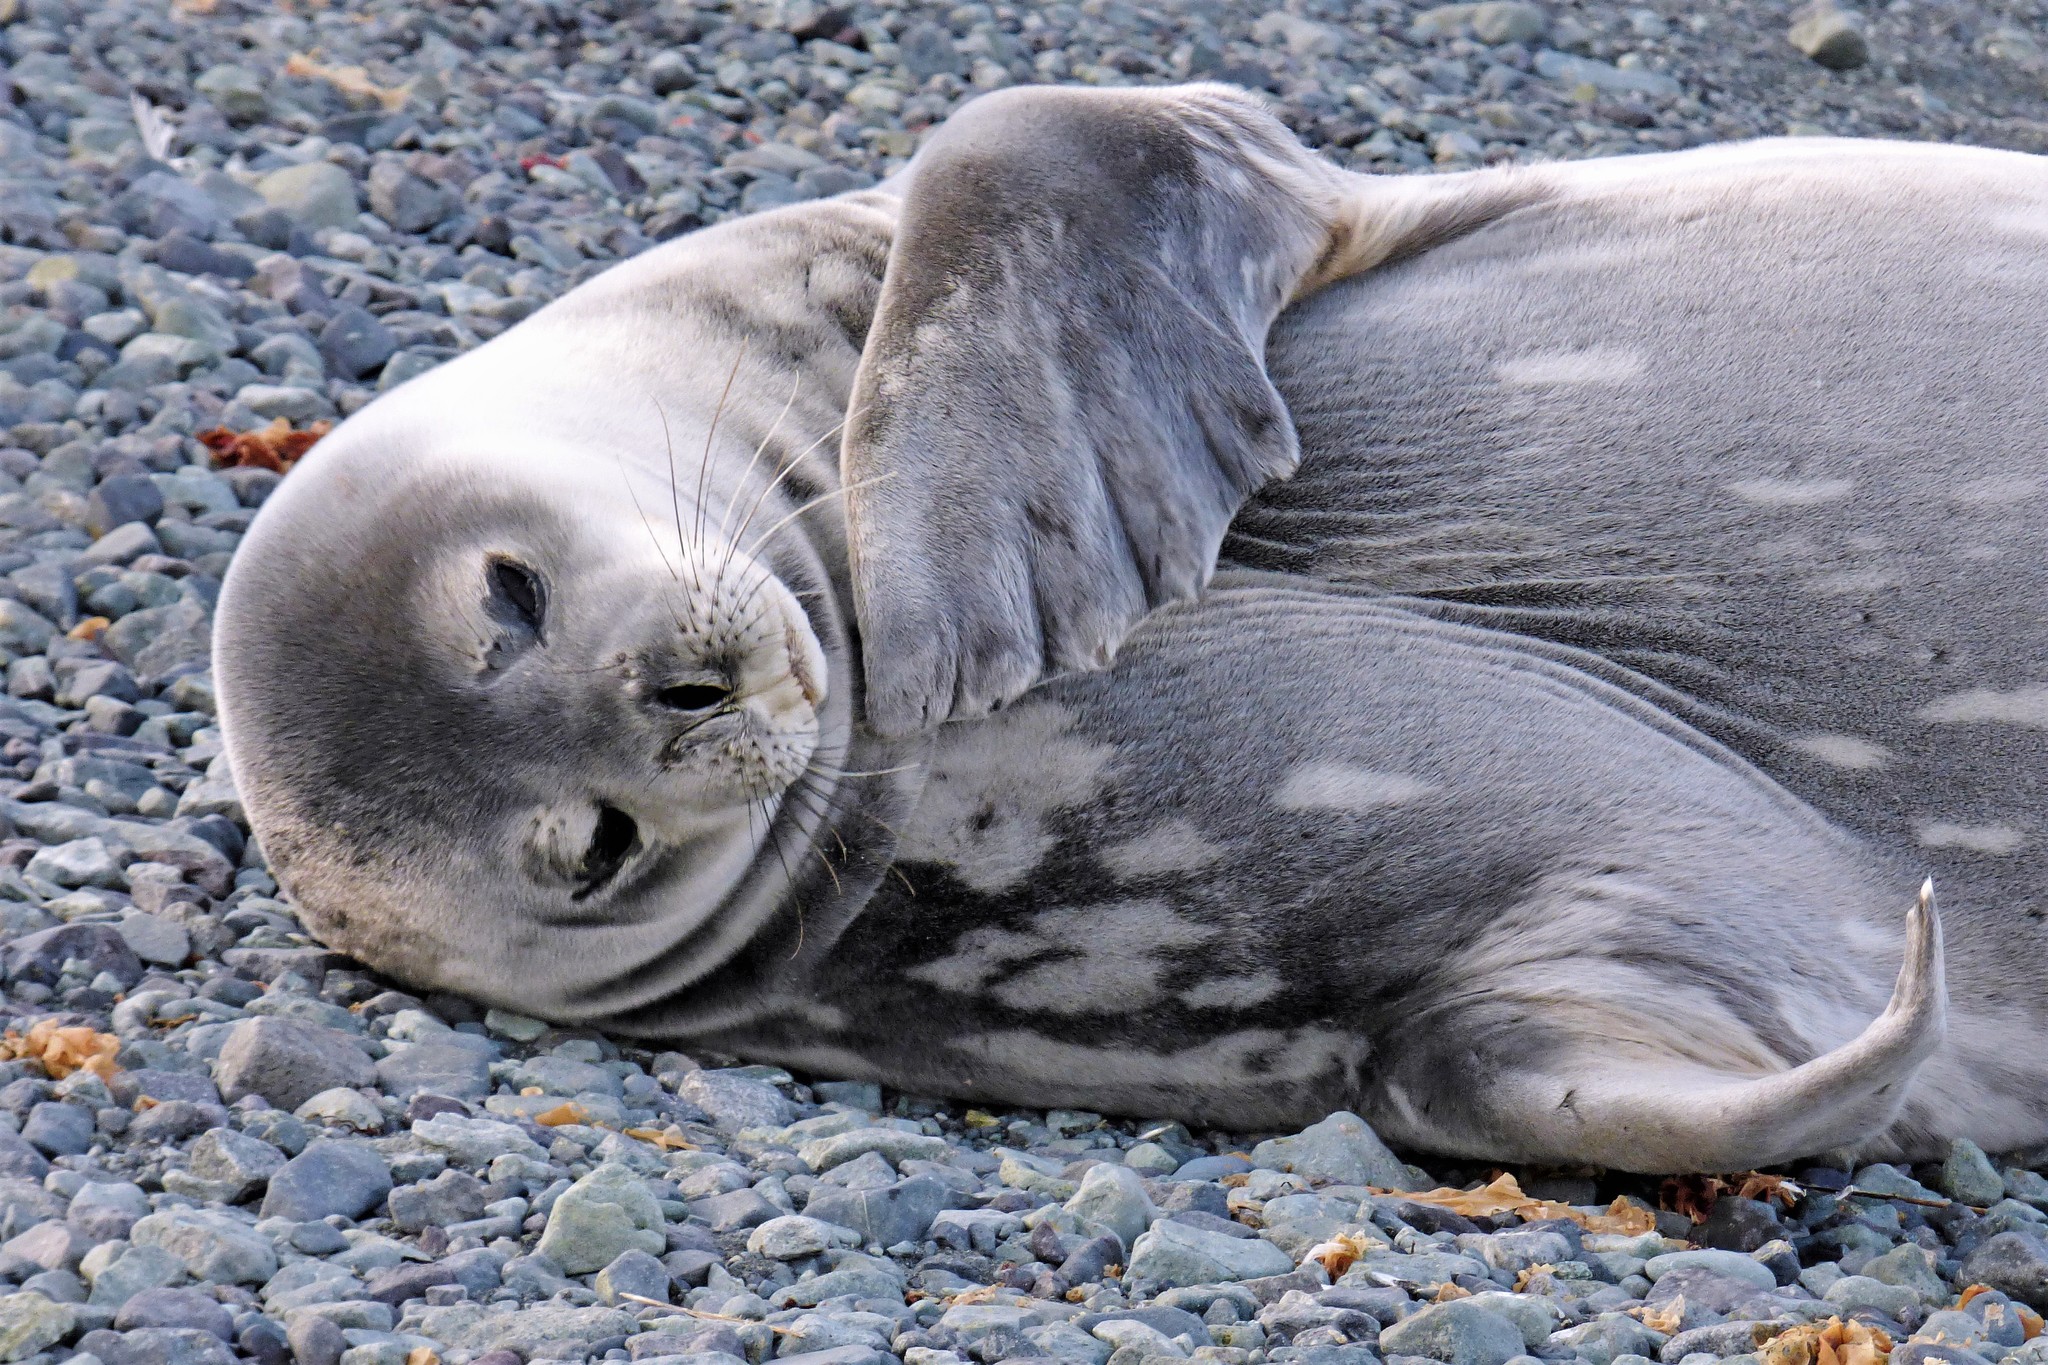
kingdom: Animalia
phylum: Chordata
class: Mammalia
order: Carnivora
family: Phocidae
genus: Leptonychotes
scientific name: Leptonychotes weddellii
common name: Weddell seal
